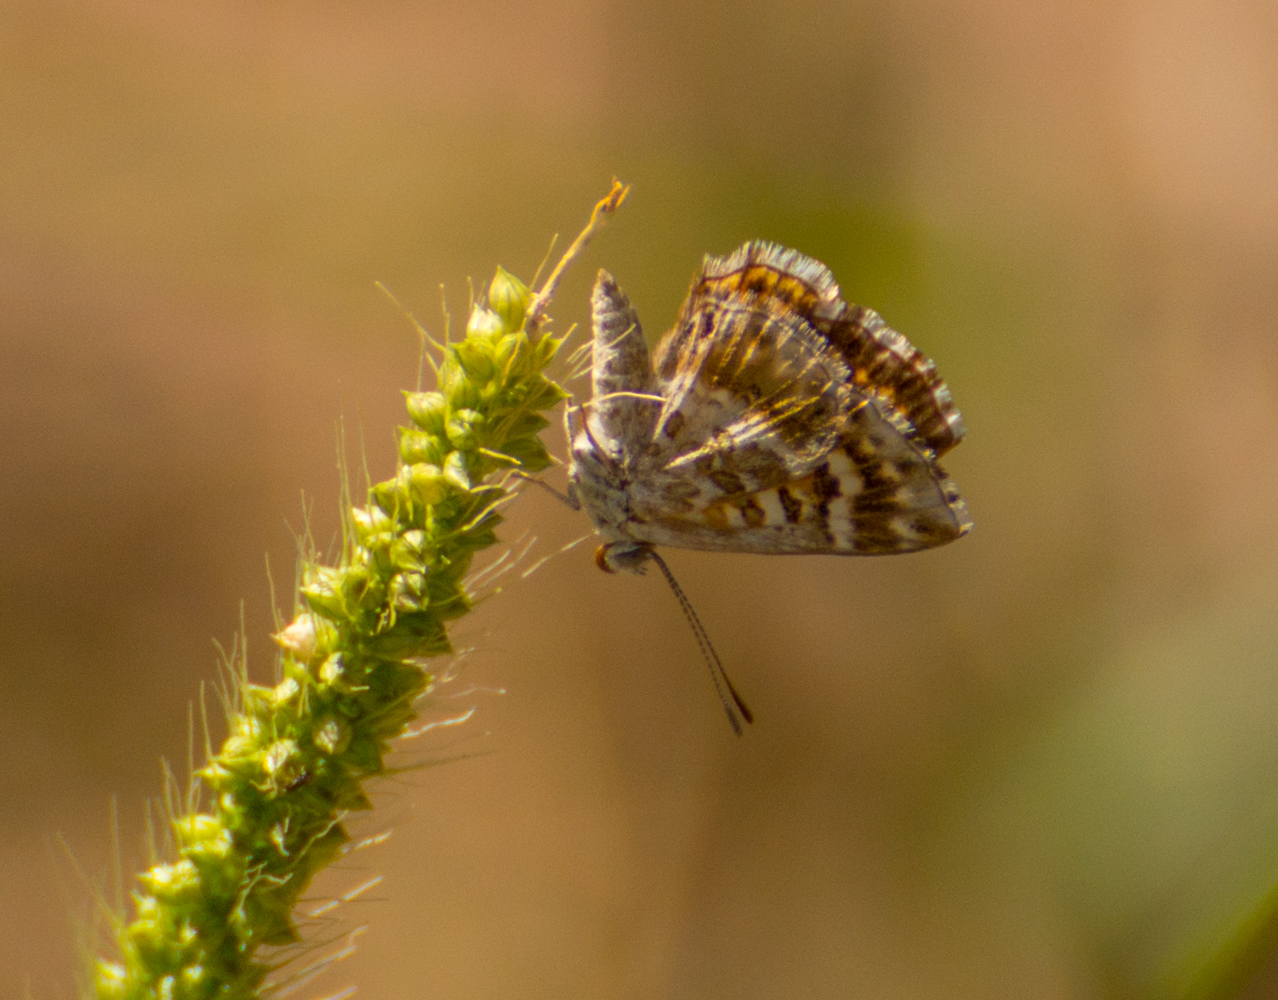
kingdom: Animalia
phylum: Arthropoda
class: Insecta
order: Lepidoptera
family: Lycaenidae
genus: Aricoris
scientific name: Aricoris signata
